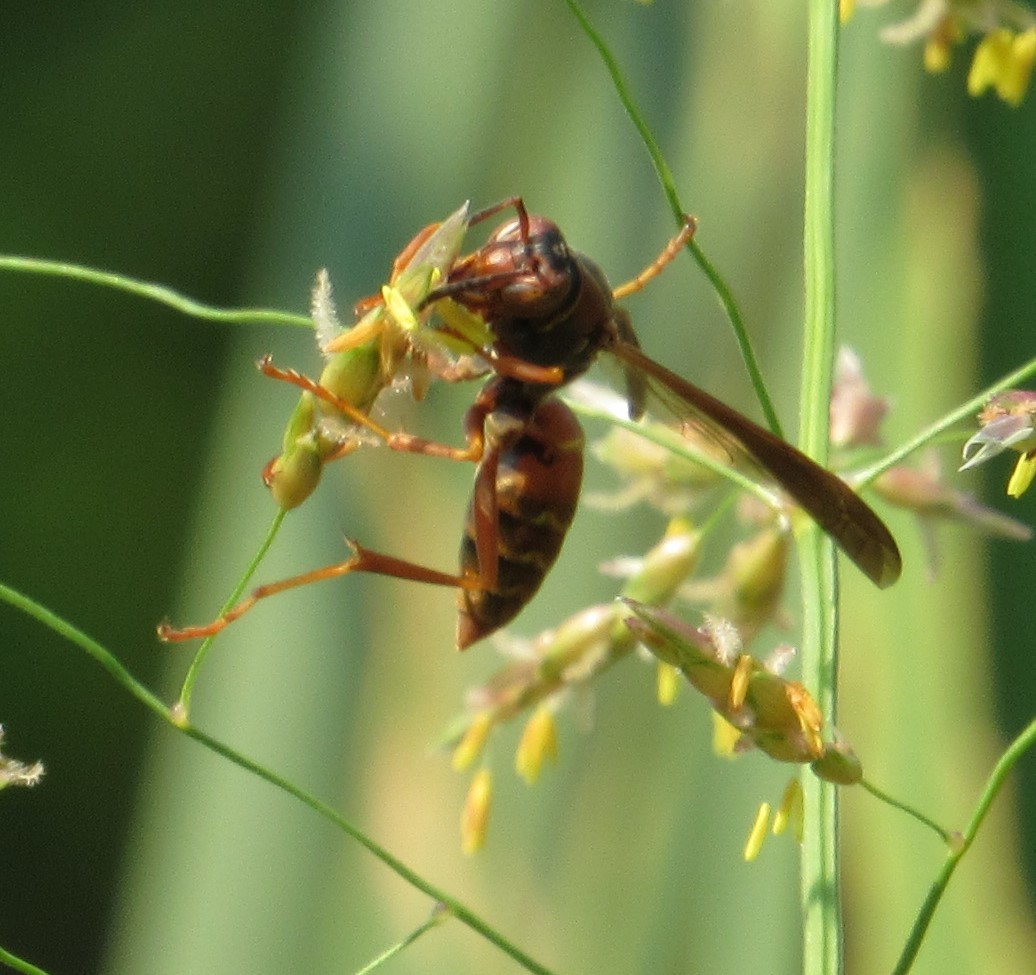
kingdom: Animalia
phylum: Arthropoda
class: Insecta
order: Hymenoptera
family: Vespidae
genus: Fuscopolistes
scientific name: Fuscopolistes
